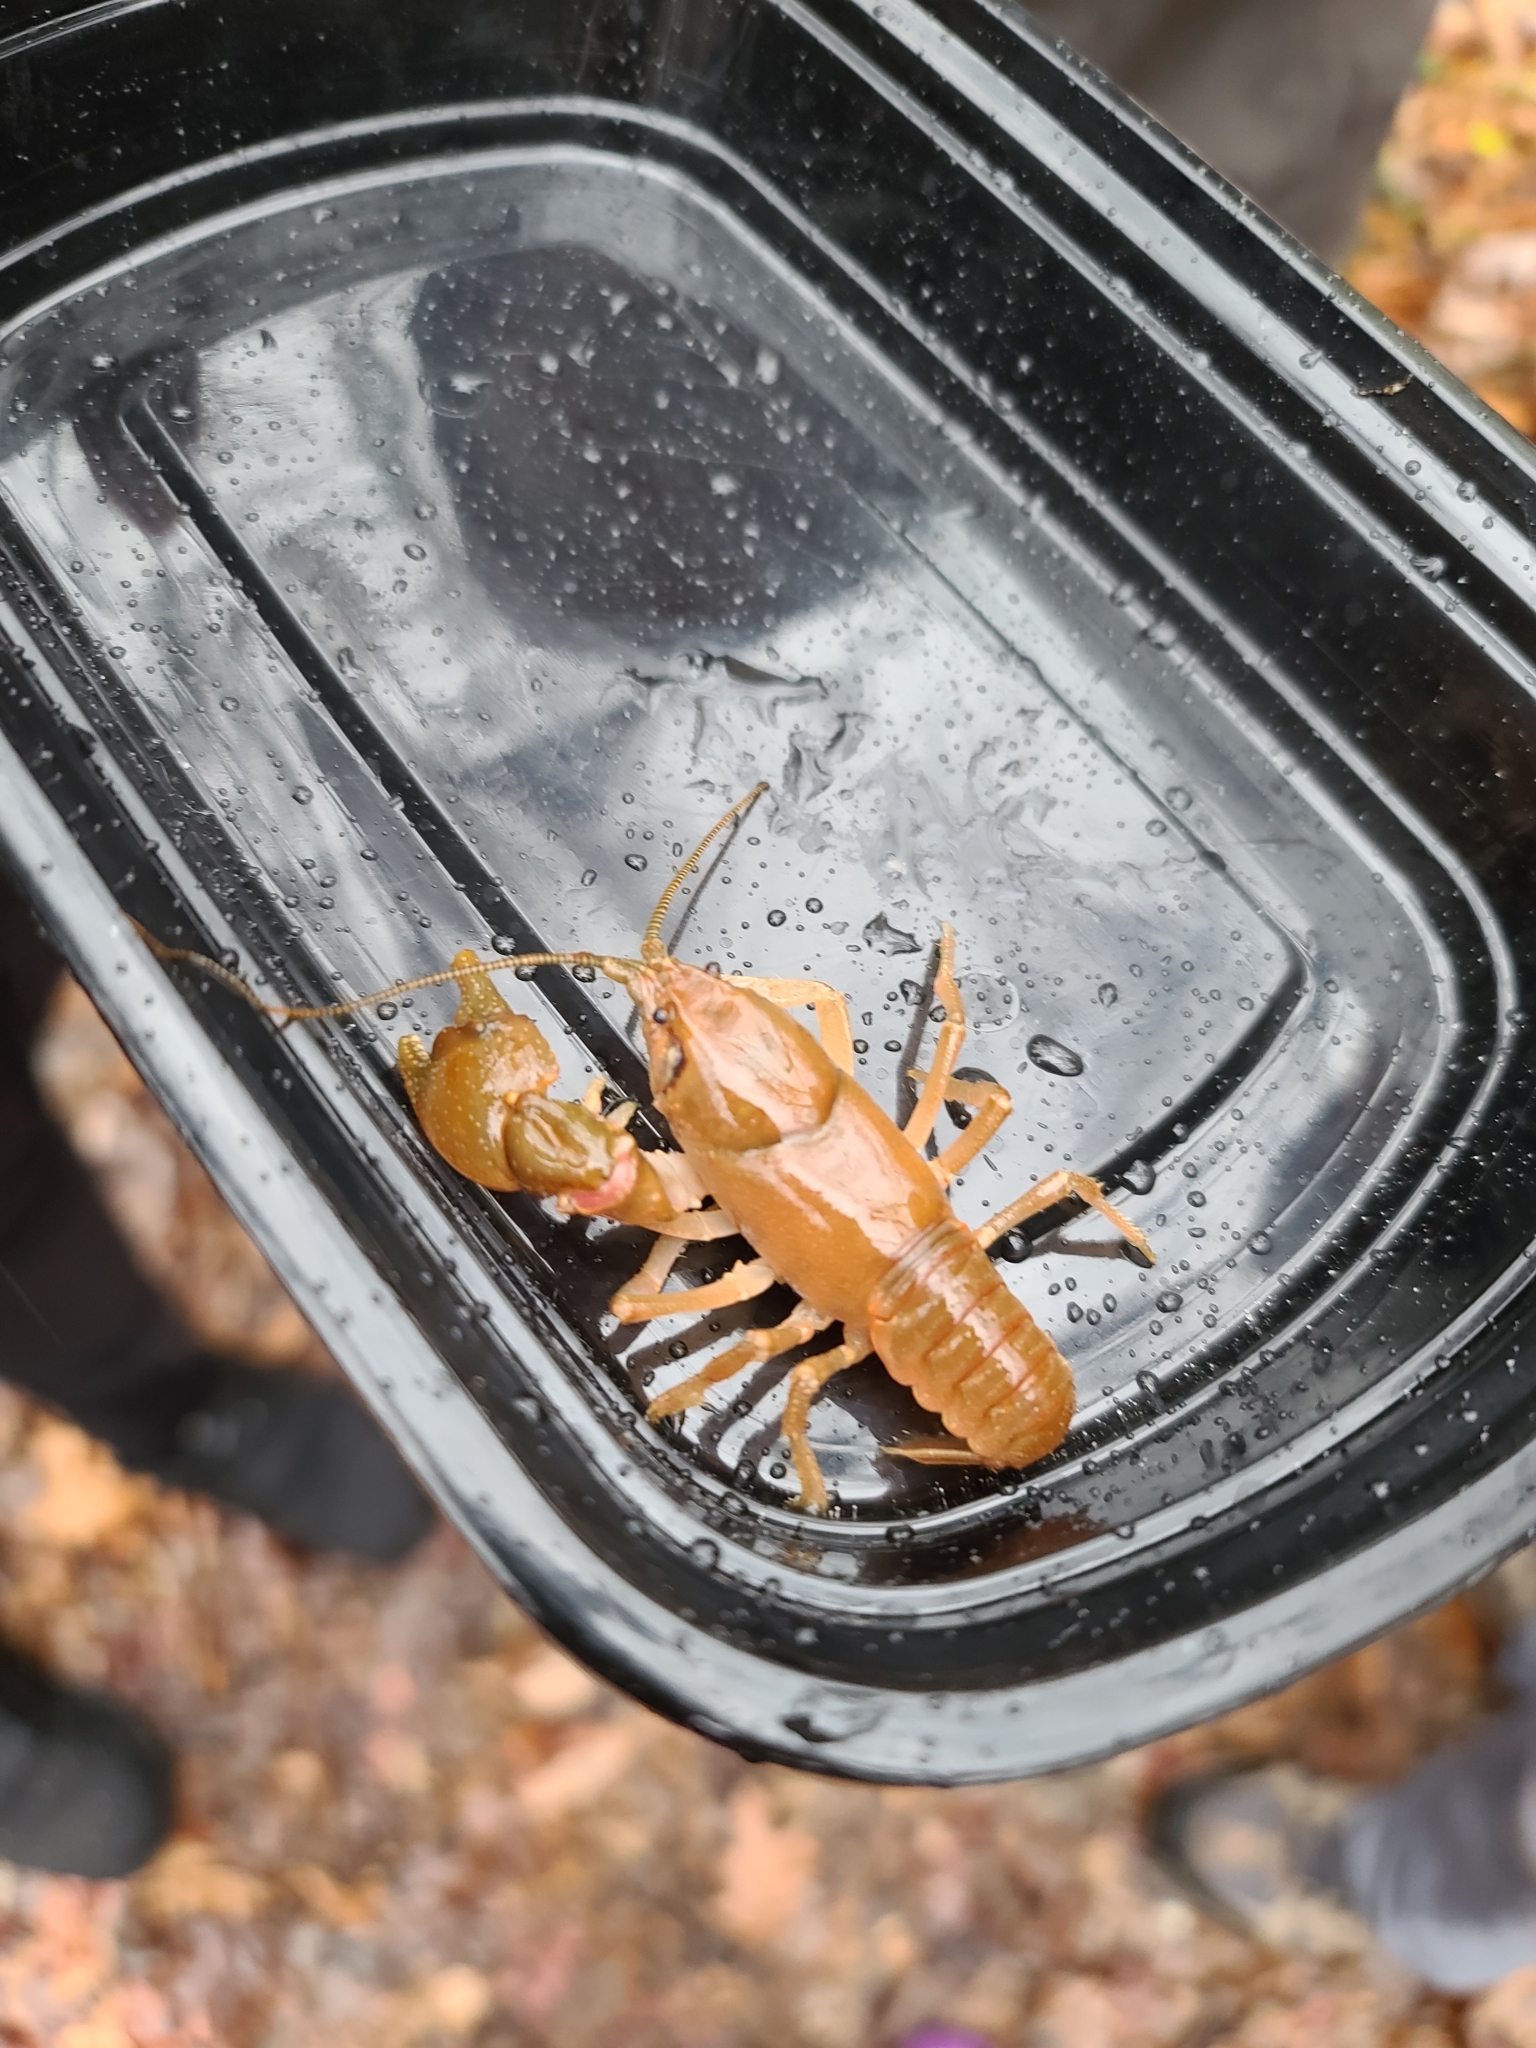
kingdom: Animalia
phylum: Arthropoda
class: Malacostraca
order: Decapoda
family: Cambaridae
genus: Cambarus
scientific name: Cambarus bartonii
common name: Appalachian brook crayfish
